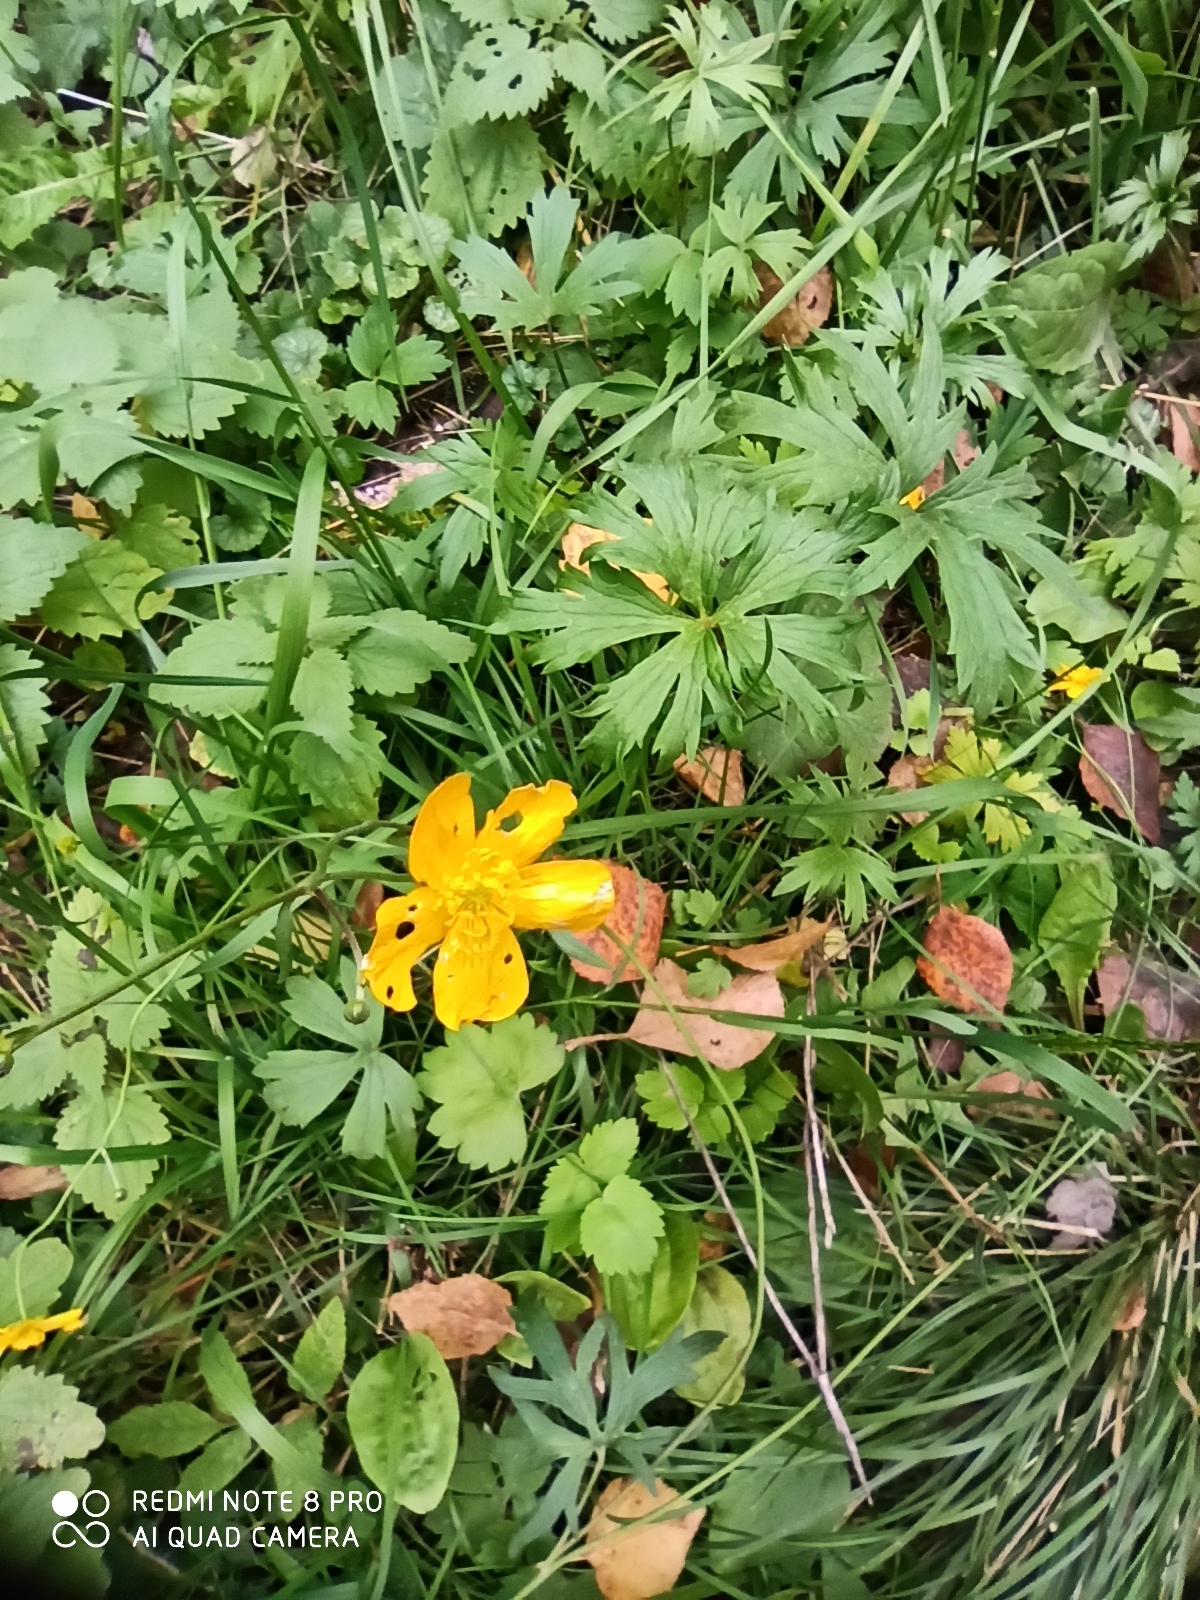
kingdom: Plantae
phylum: Tracheophyta
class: Magnoliopsida
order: Ranunculales
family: Ranunculaceae
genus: Ranunculus
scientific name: Ranunculus acris
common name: Meadow buttercup
